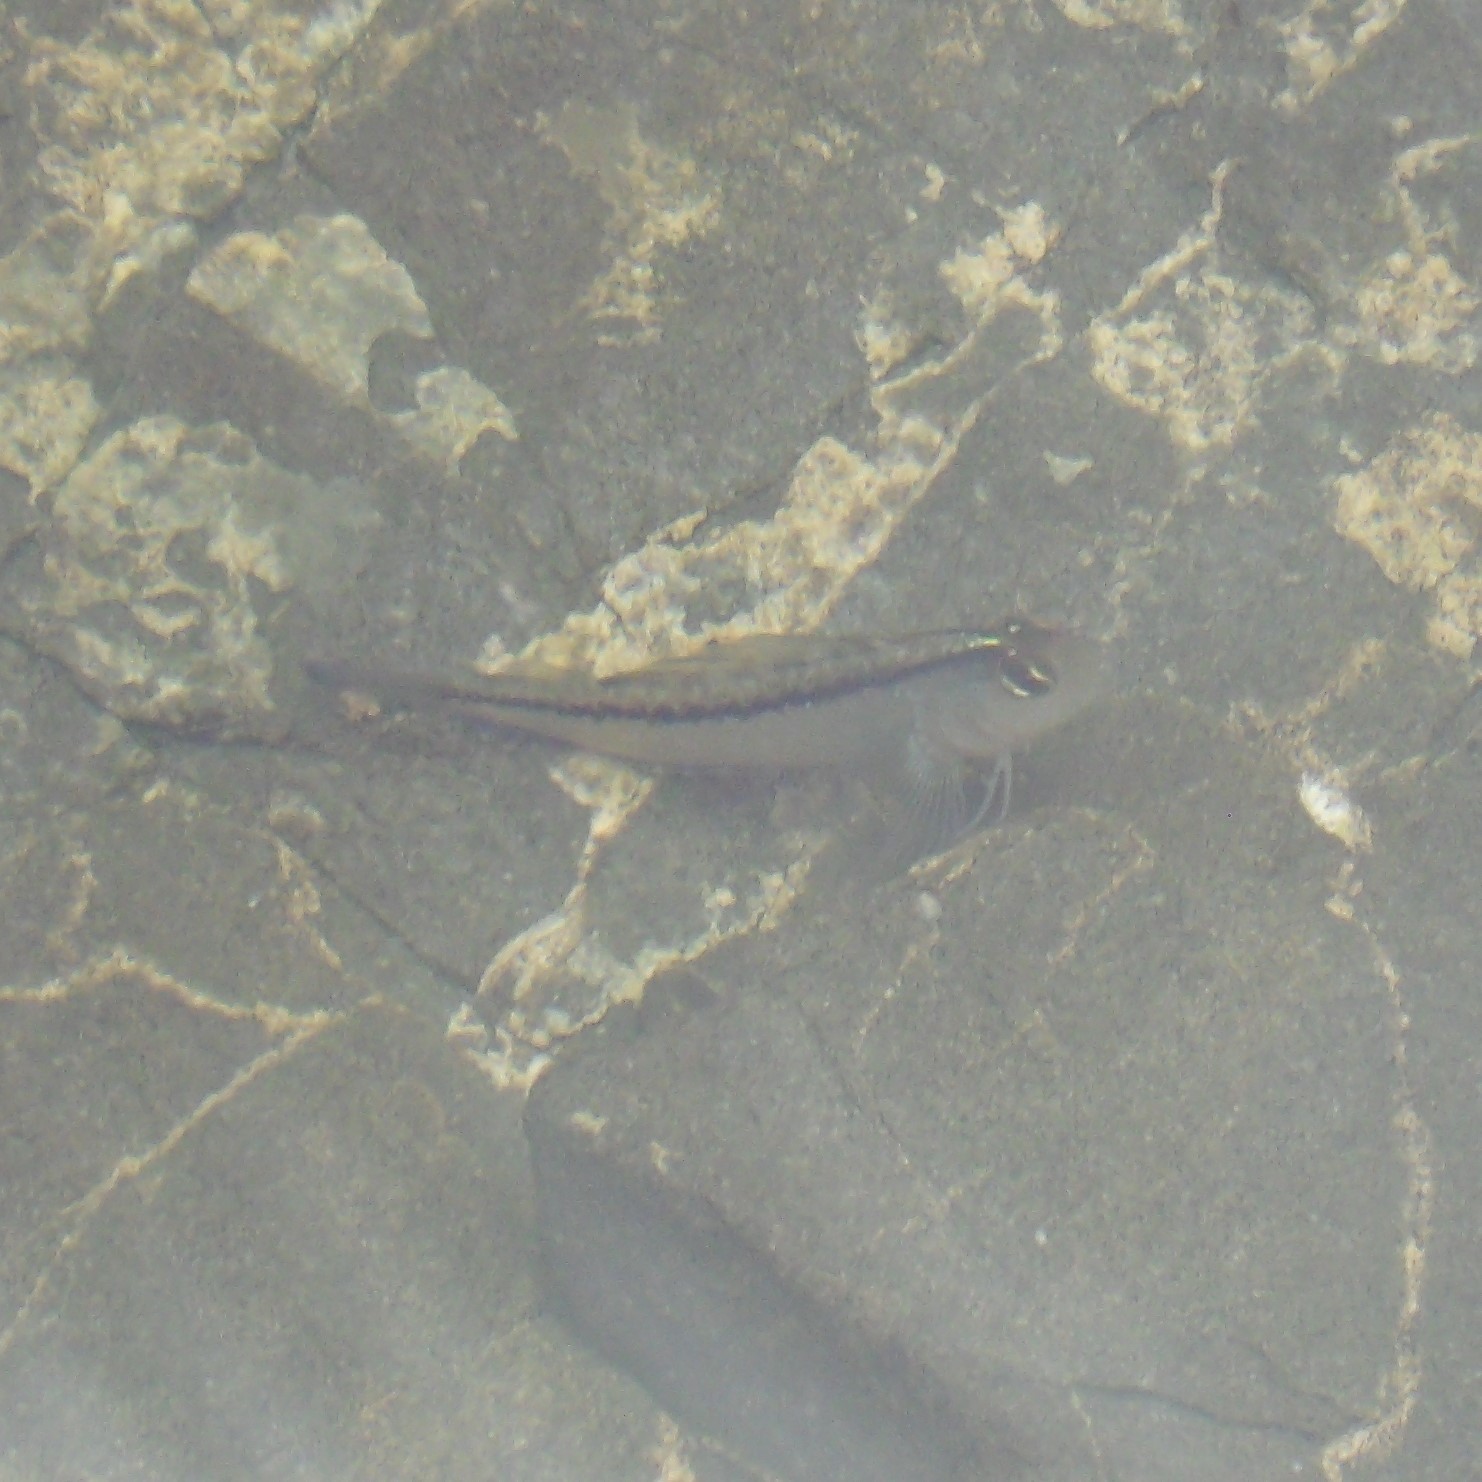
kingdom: Animalia
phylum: Chordata
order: Perciformes
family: Tripterygiidae
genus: Forsterygion
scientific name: Forsterygion lapillum
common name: Common triplefin
